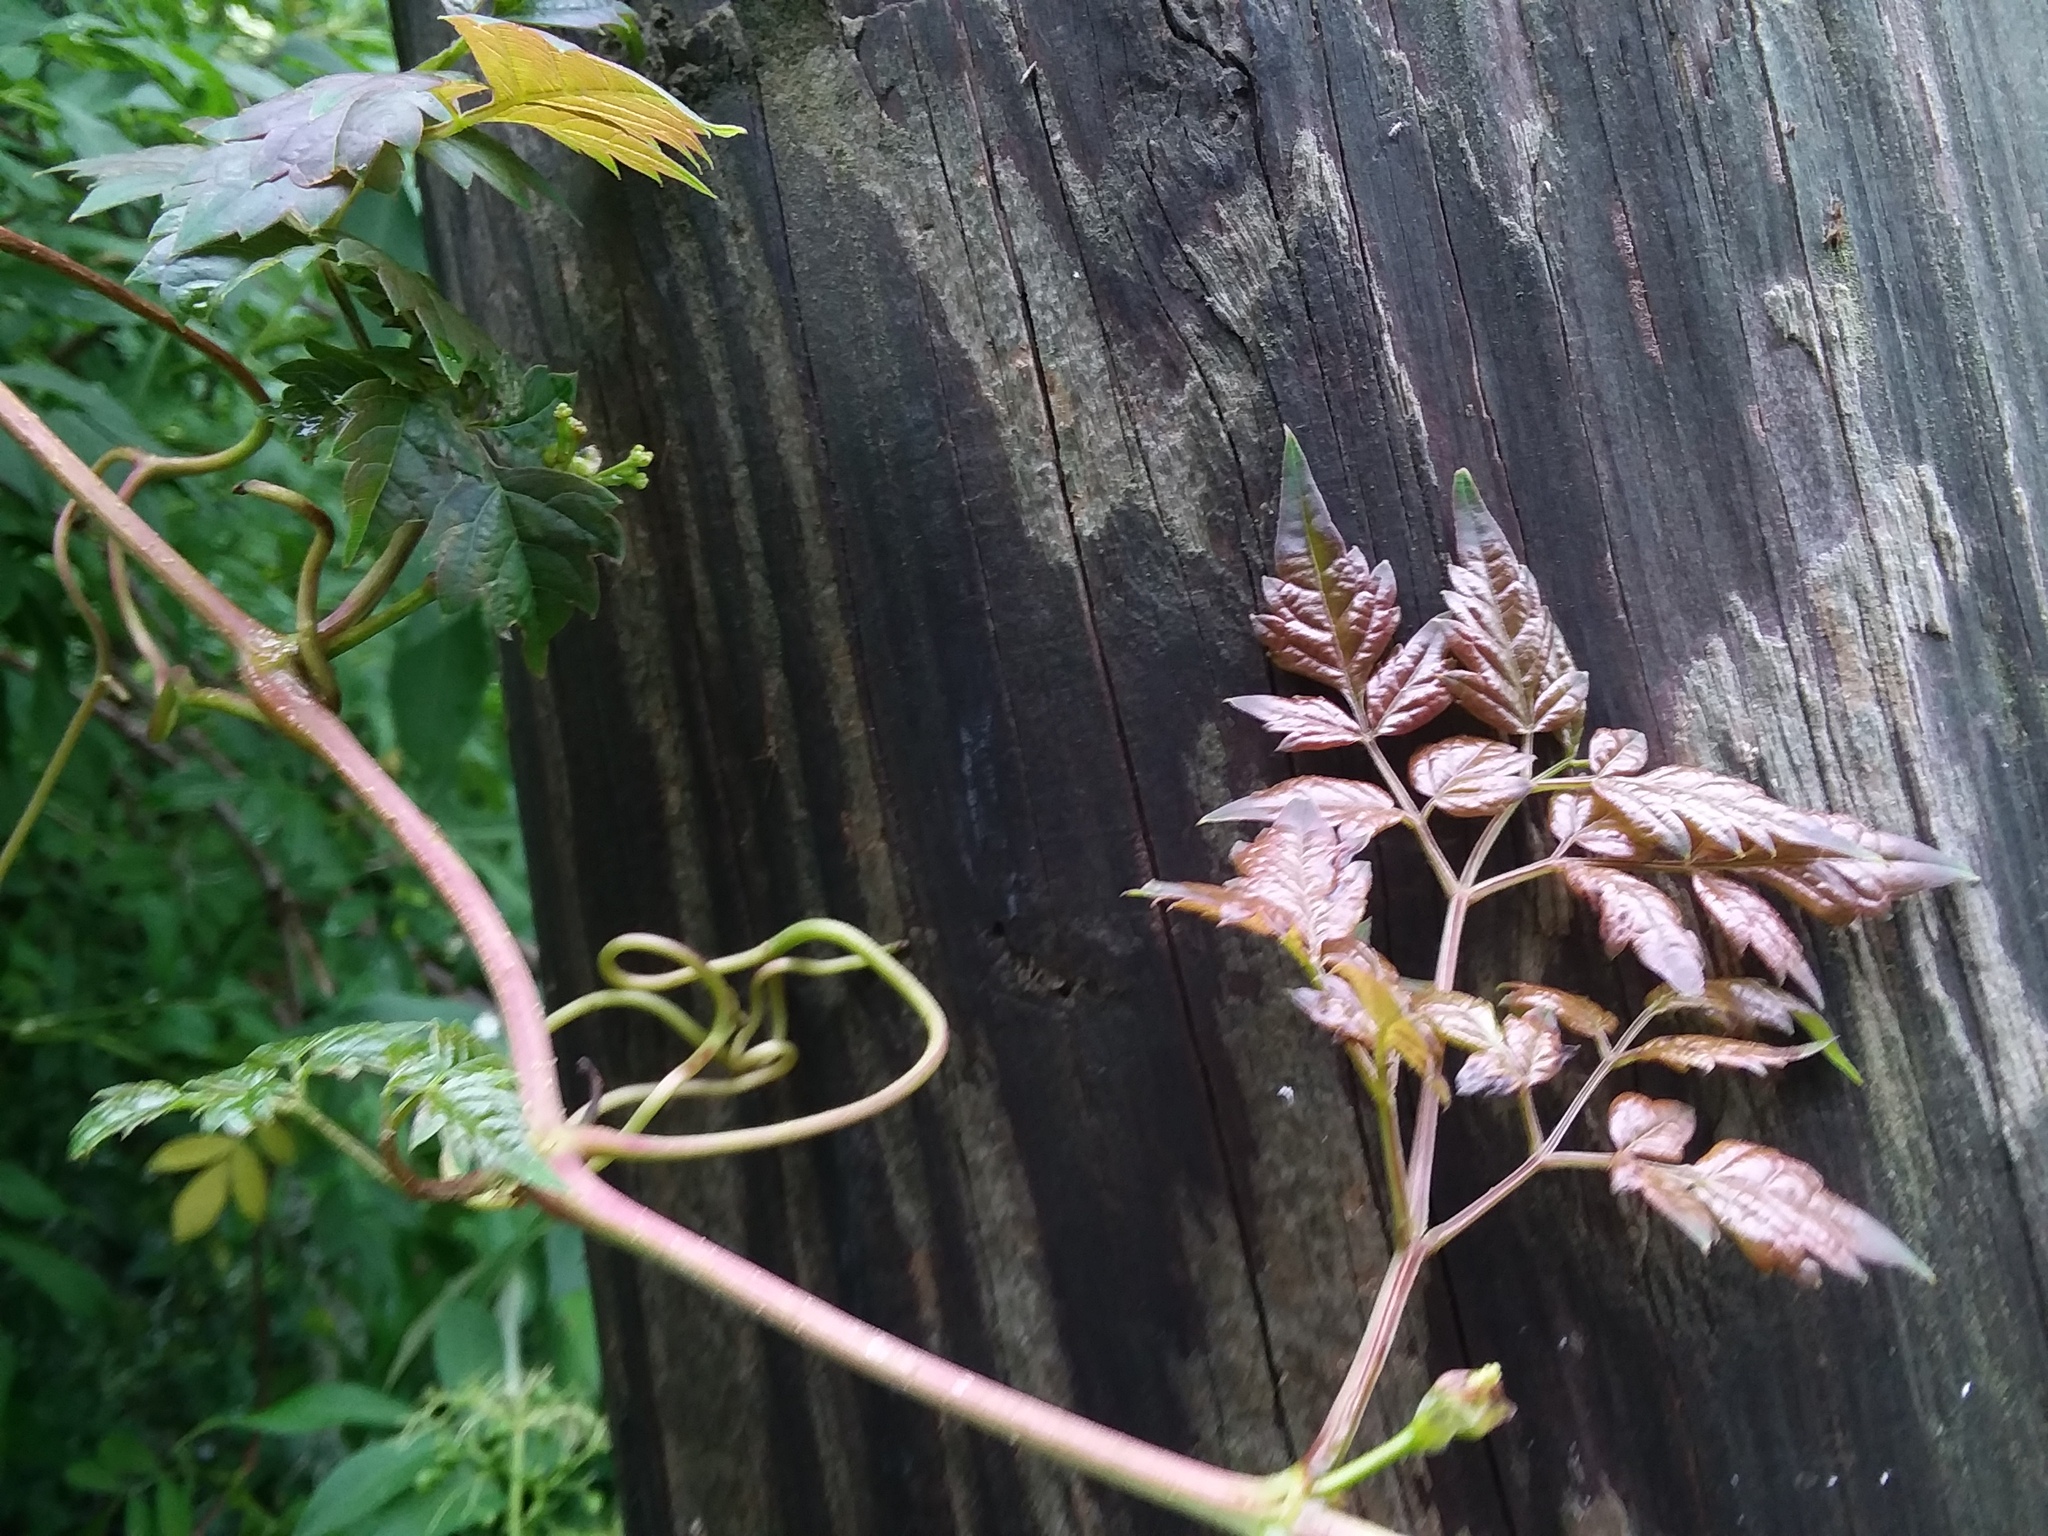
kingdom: Plantae
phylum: Tracheophyta
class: Magnoliopsida
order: Vitales
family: Vitaceae
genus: Nekemias
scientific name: Nekemias arborea
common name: Peppervine
